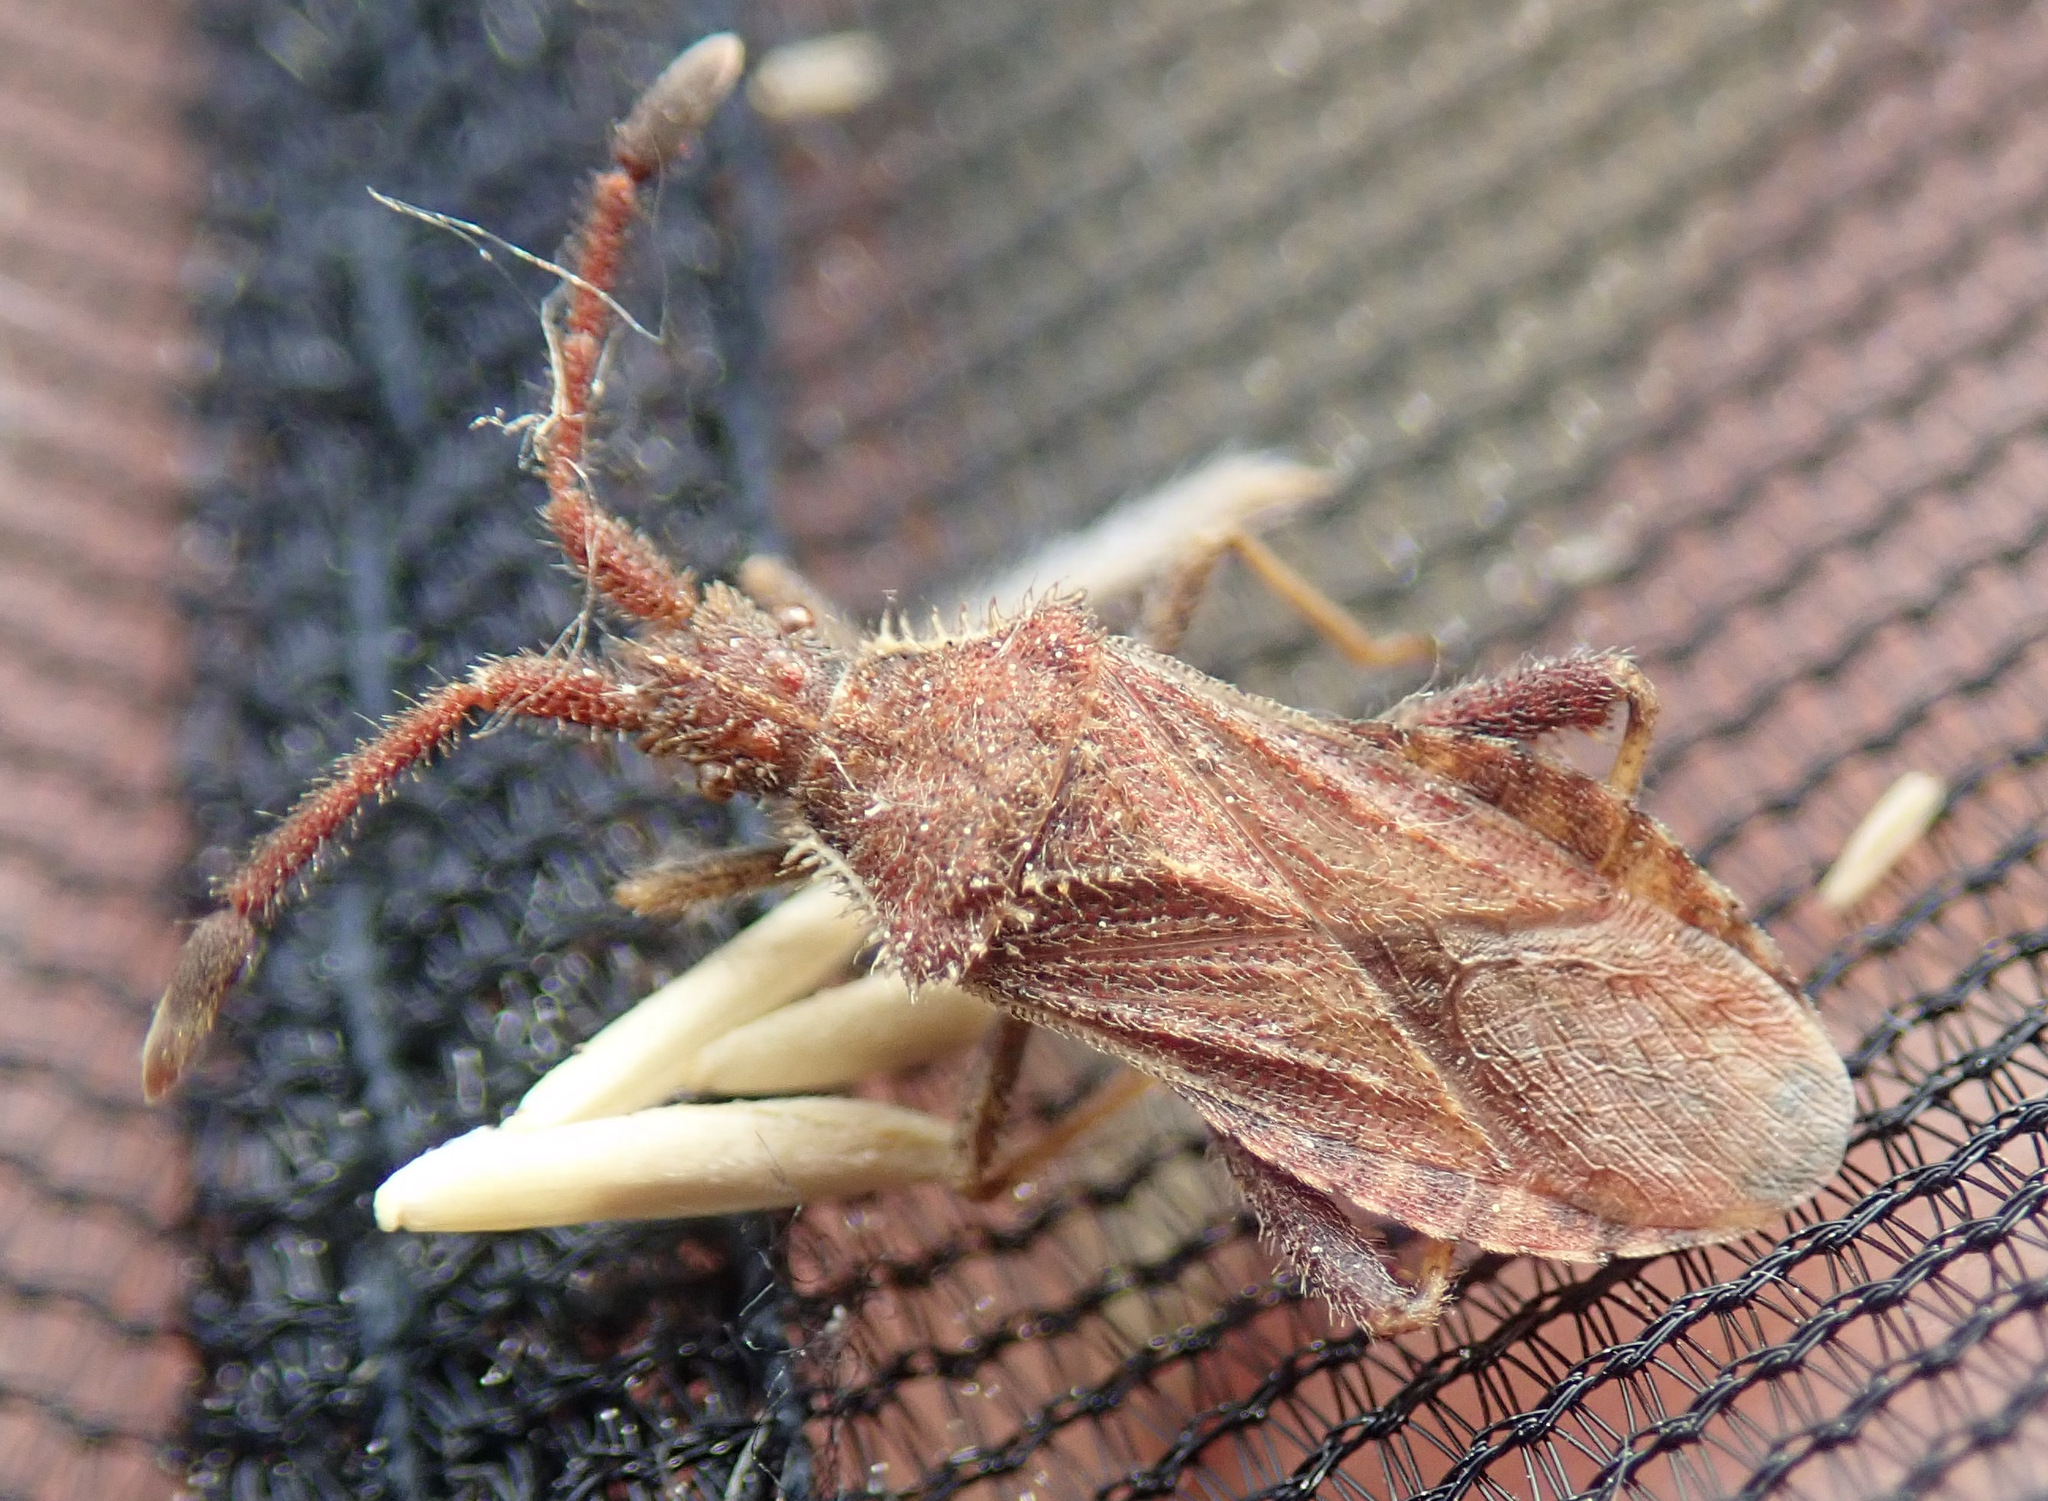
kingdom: Animalia
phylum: Arthropoda
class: Insecta
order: Hemiptera
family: Coreidae
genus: Coriomeris
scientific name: Coriomeris denticulatus
